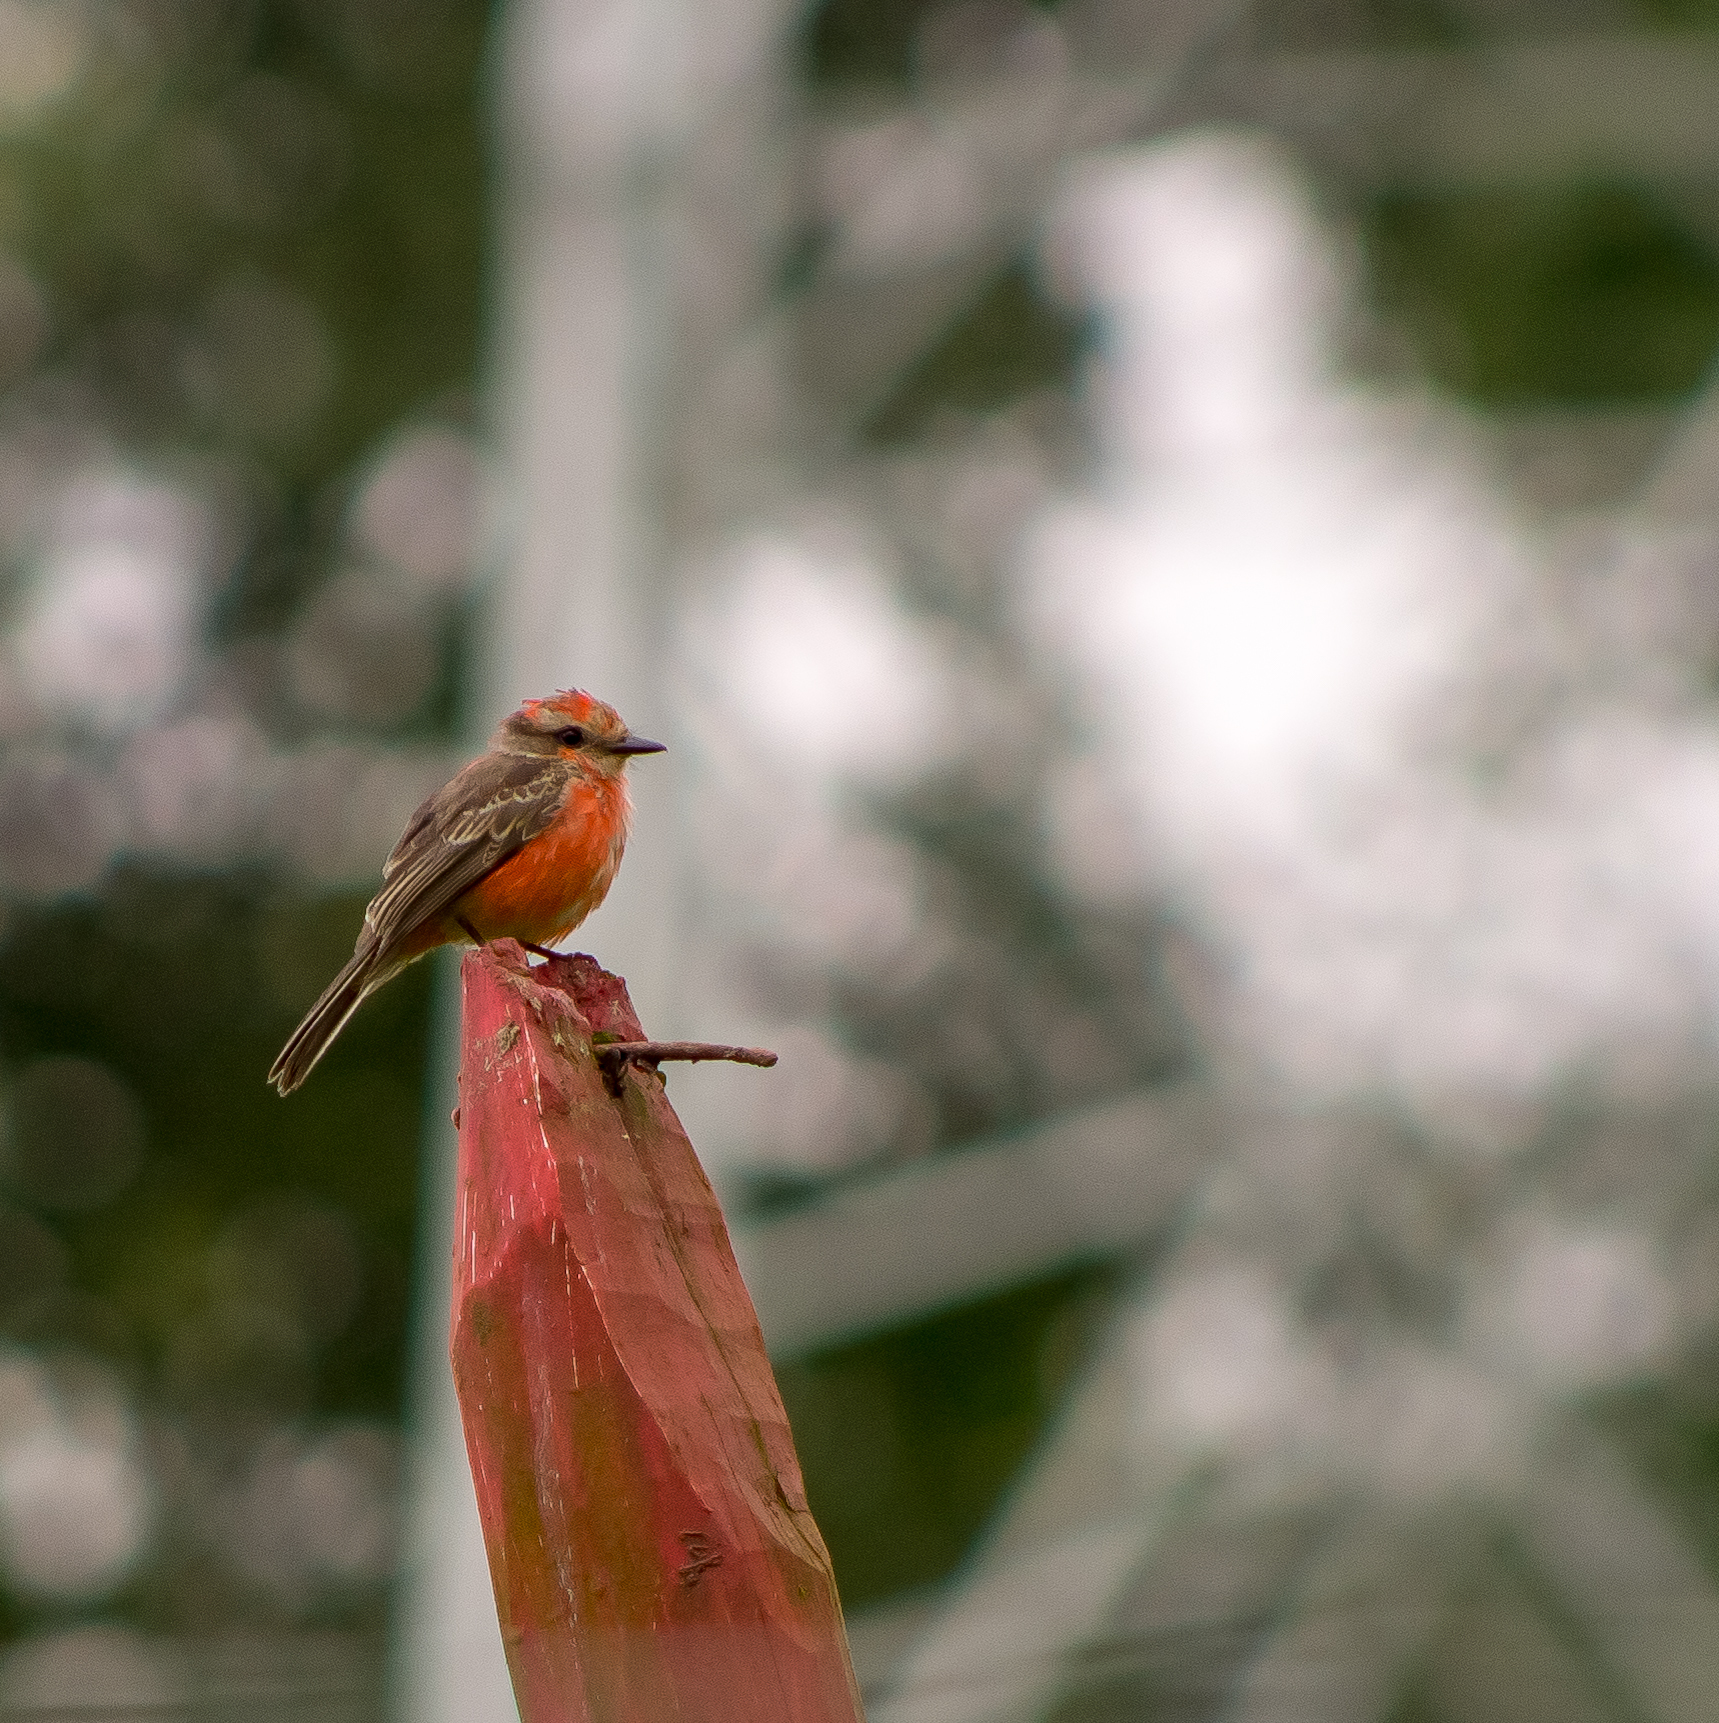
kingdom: Animalia
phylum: Chordata
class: Aves
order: Passeriformes
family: Tyrannidae
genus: Pyrocephalus
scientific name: Pyrocephalus rubinus
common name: Vermilion flycatcher
